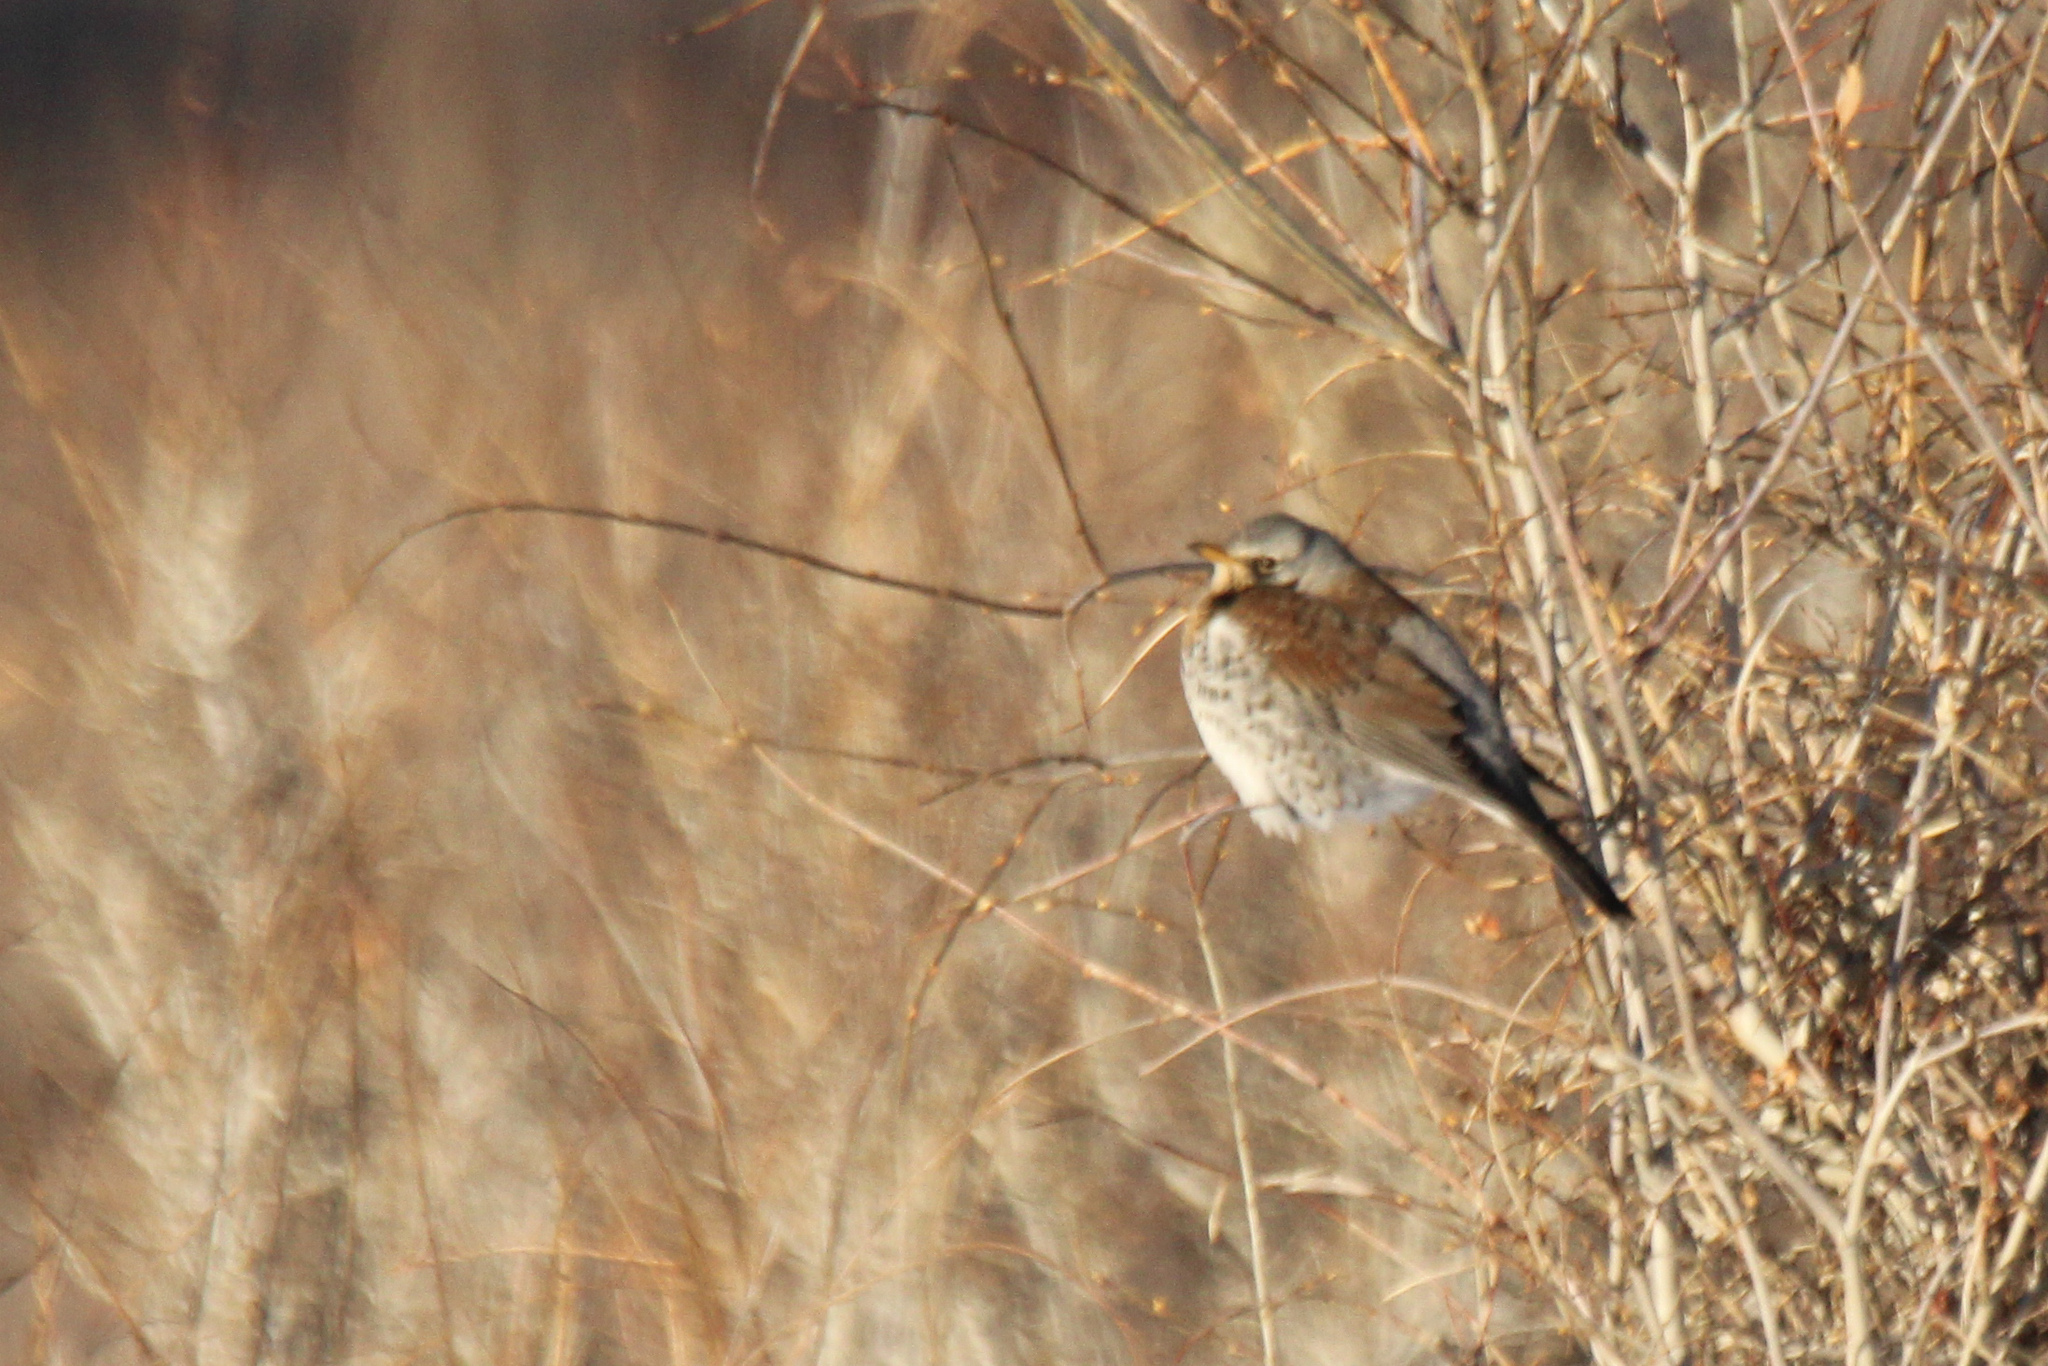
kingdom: Animalia
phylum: Chordata
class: Aves
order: Passeriformes
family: Turdidae
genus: Turdus
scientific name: Turdus pilaris
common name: Fieldfare
